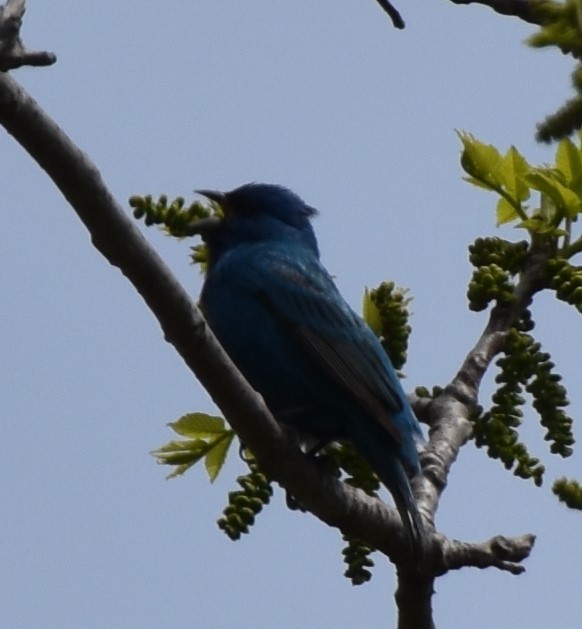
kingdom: Animalia
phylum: Chordata
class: Aves
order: Passeriformes
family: Cardinalidae
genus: Passerina
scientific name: Passerina cyanea
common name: Indigo bunting
